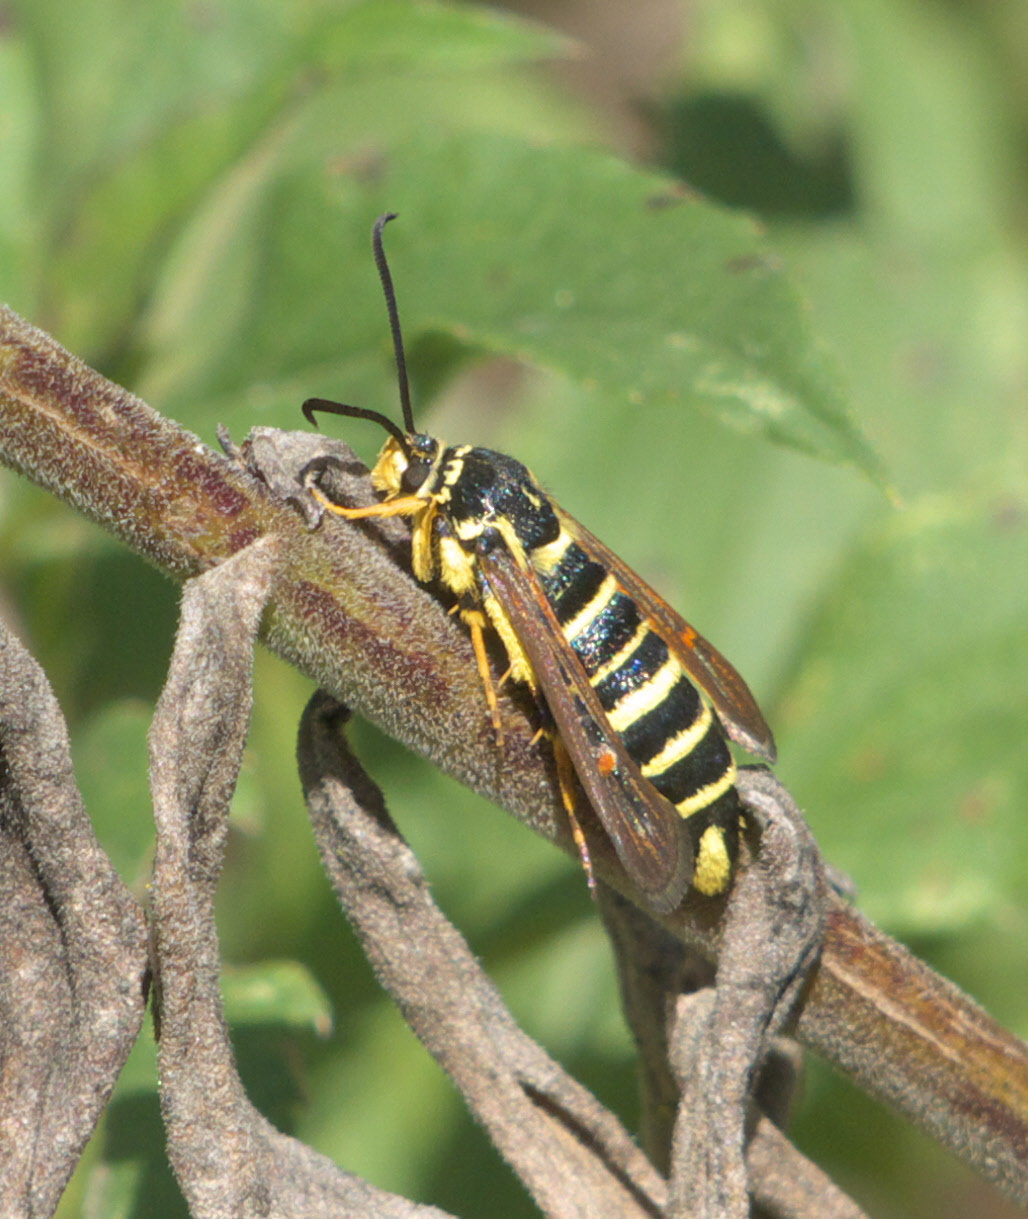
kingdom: Animalia
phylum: Arthropoda
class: Insecta
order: Lepidoptera
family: Sesiidae
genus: Synanthedon
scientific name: Synanthedon rileyana
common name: Riley's clearwing moth
